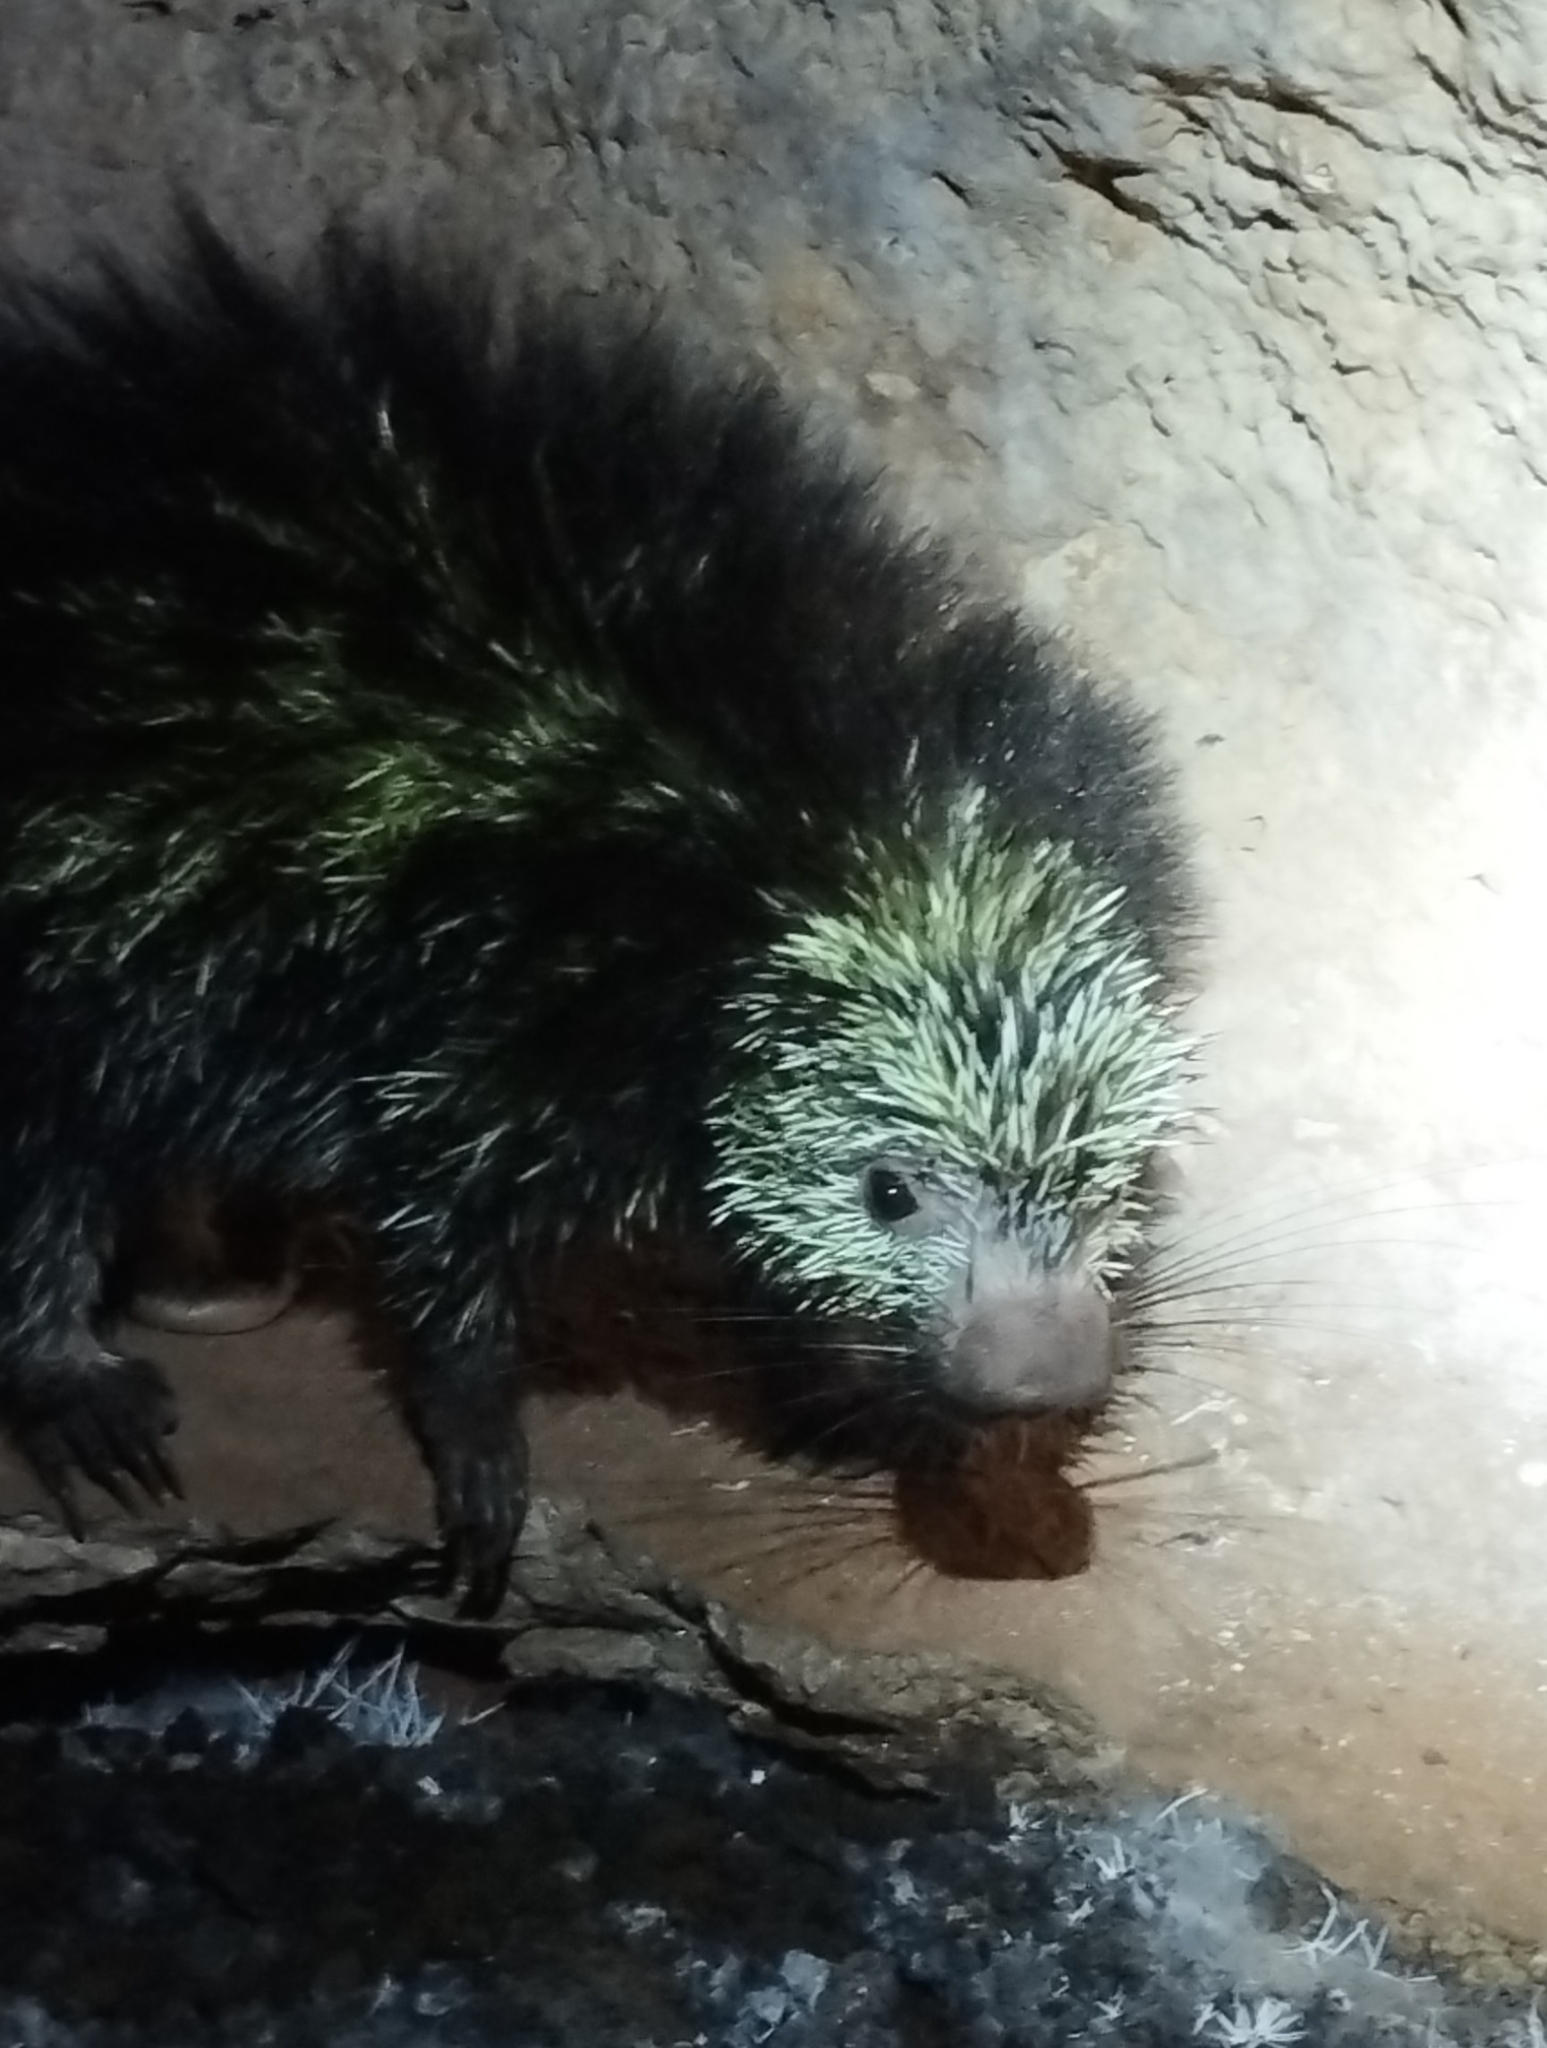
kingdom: Animalia
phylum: Chordata
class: Mammalia
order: Rodentia
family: Erethizontidae
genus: Sphiggurus
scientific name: Sphiggurus mexicanus
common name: Mexican hairy dwarf porcupine
